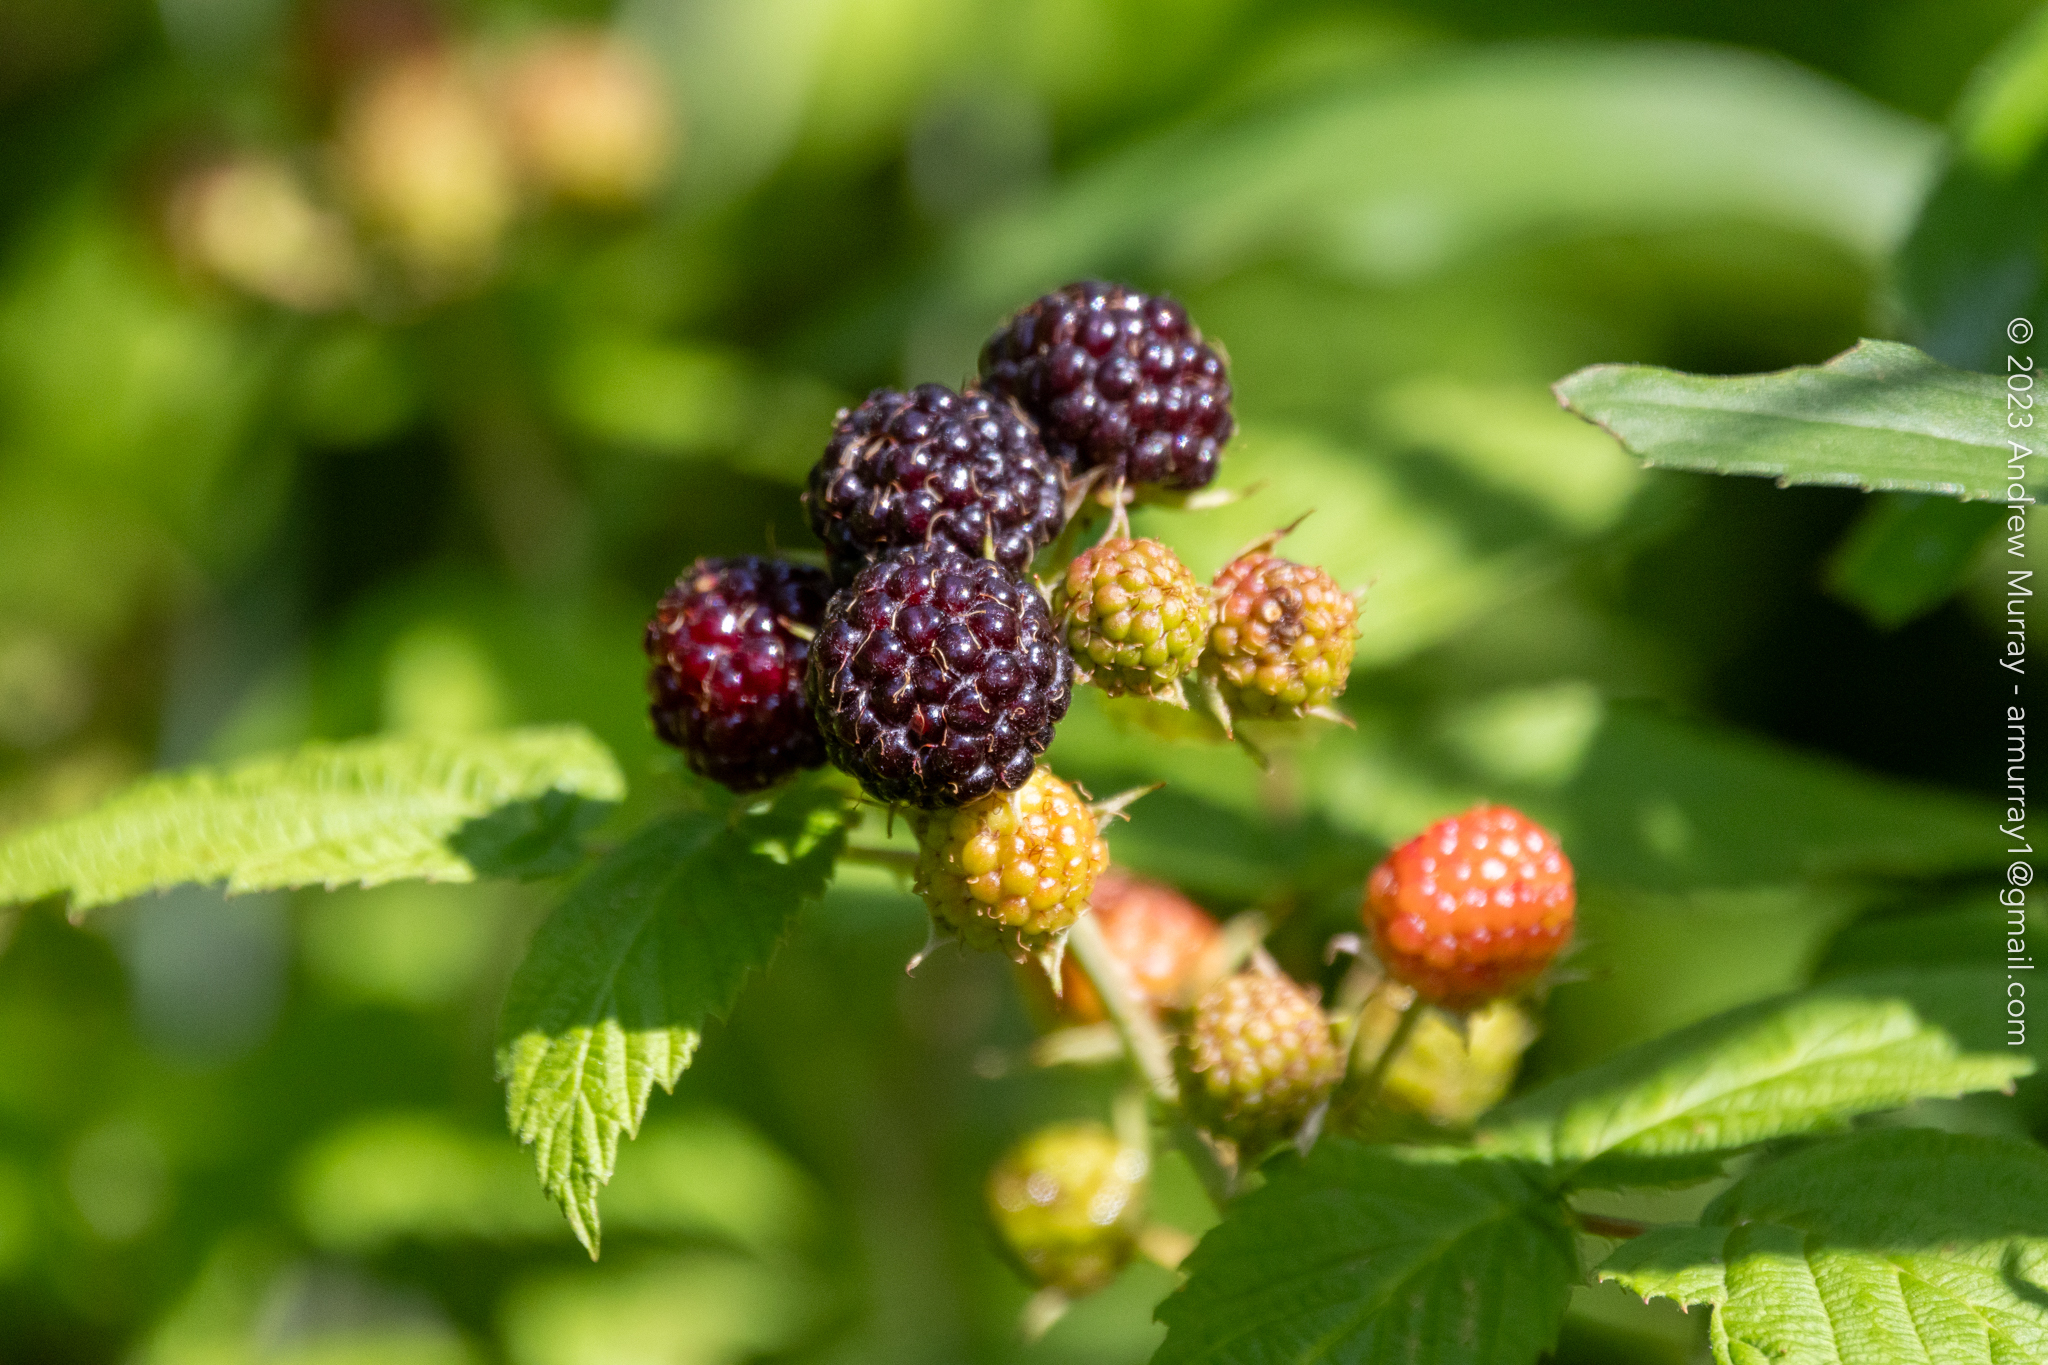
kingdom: Plantae
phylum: Tracheophyta
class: Magnoliopsida
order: Rosales
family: Rosaceae
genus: Rubus
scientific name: Rubus occidentalis
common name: Black raspberry
